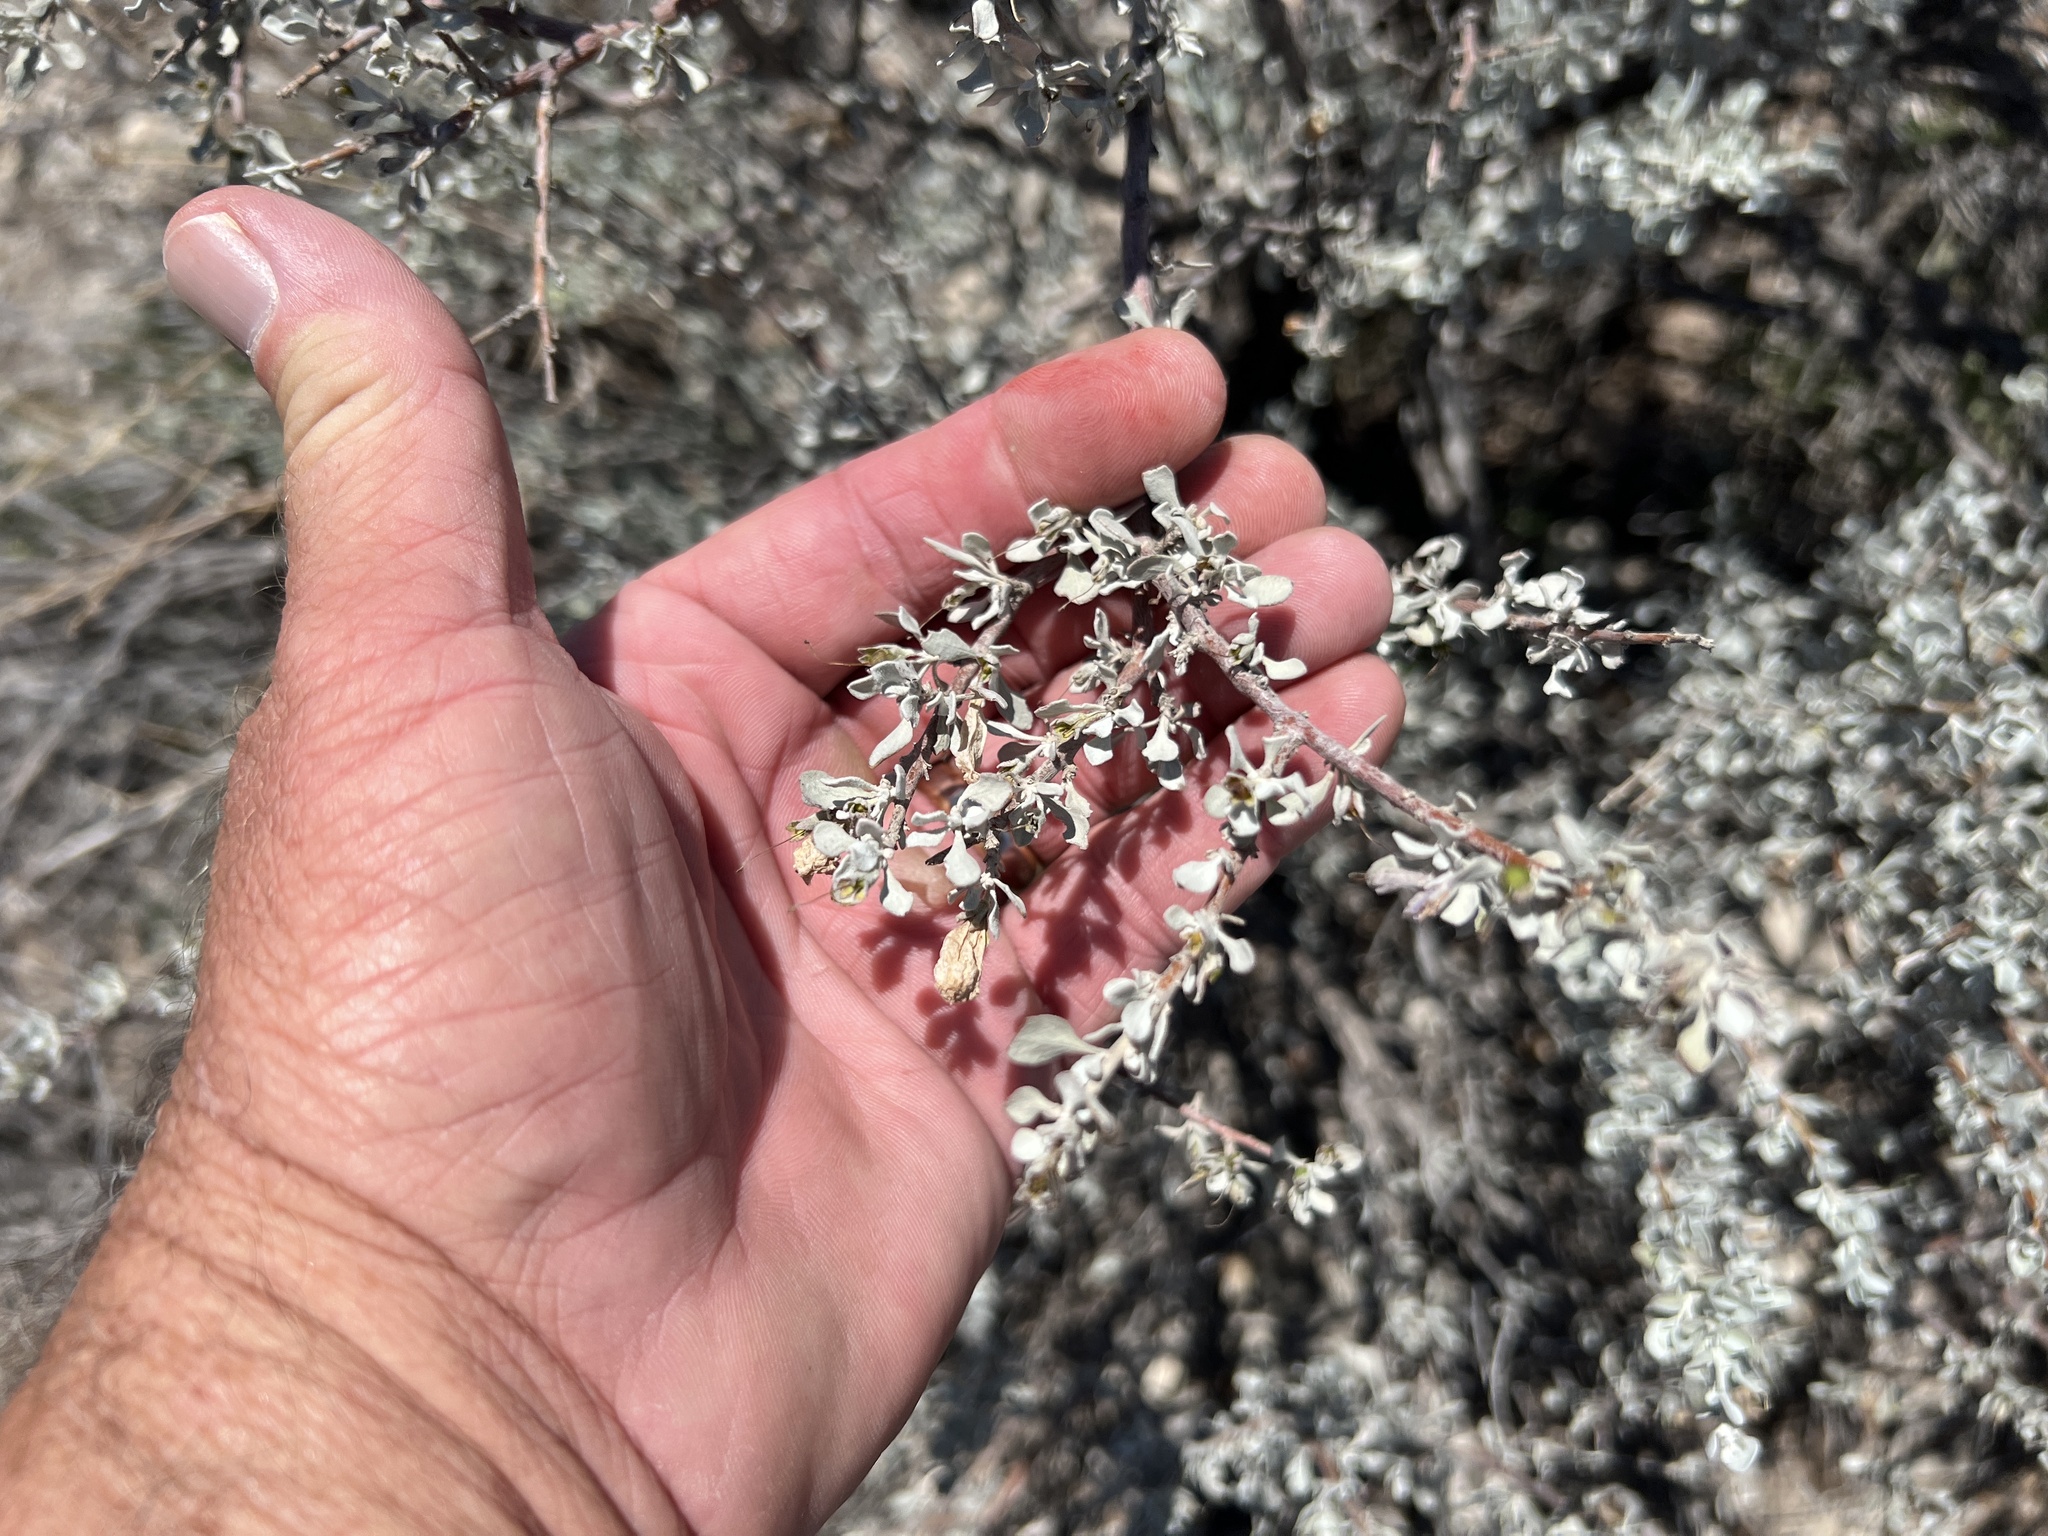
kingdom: Plantae
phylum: Tracheophyta
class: Magnoliopsida
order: Lamiales
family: Scrophulariaceae
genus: Leucophyllum
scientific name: Leucophyllum minus
